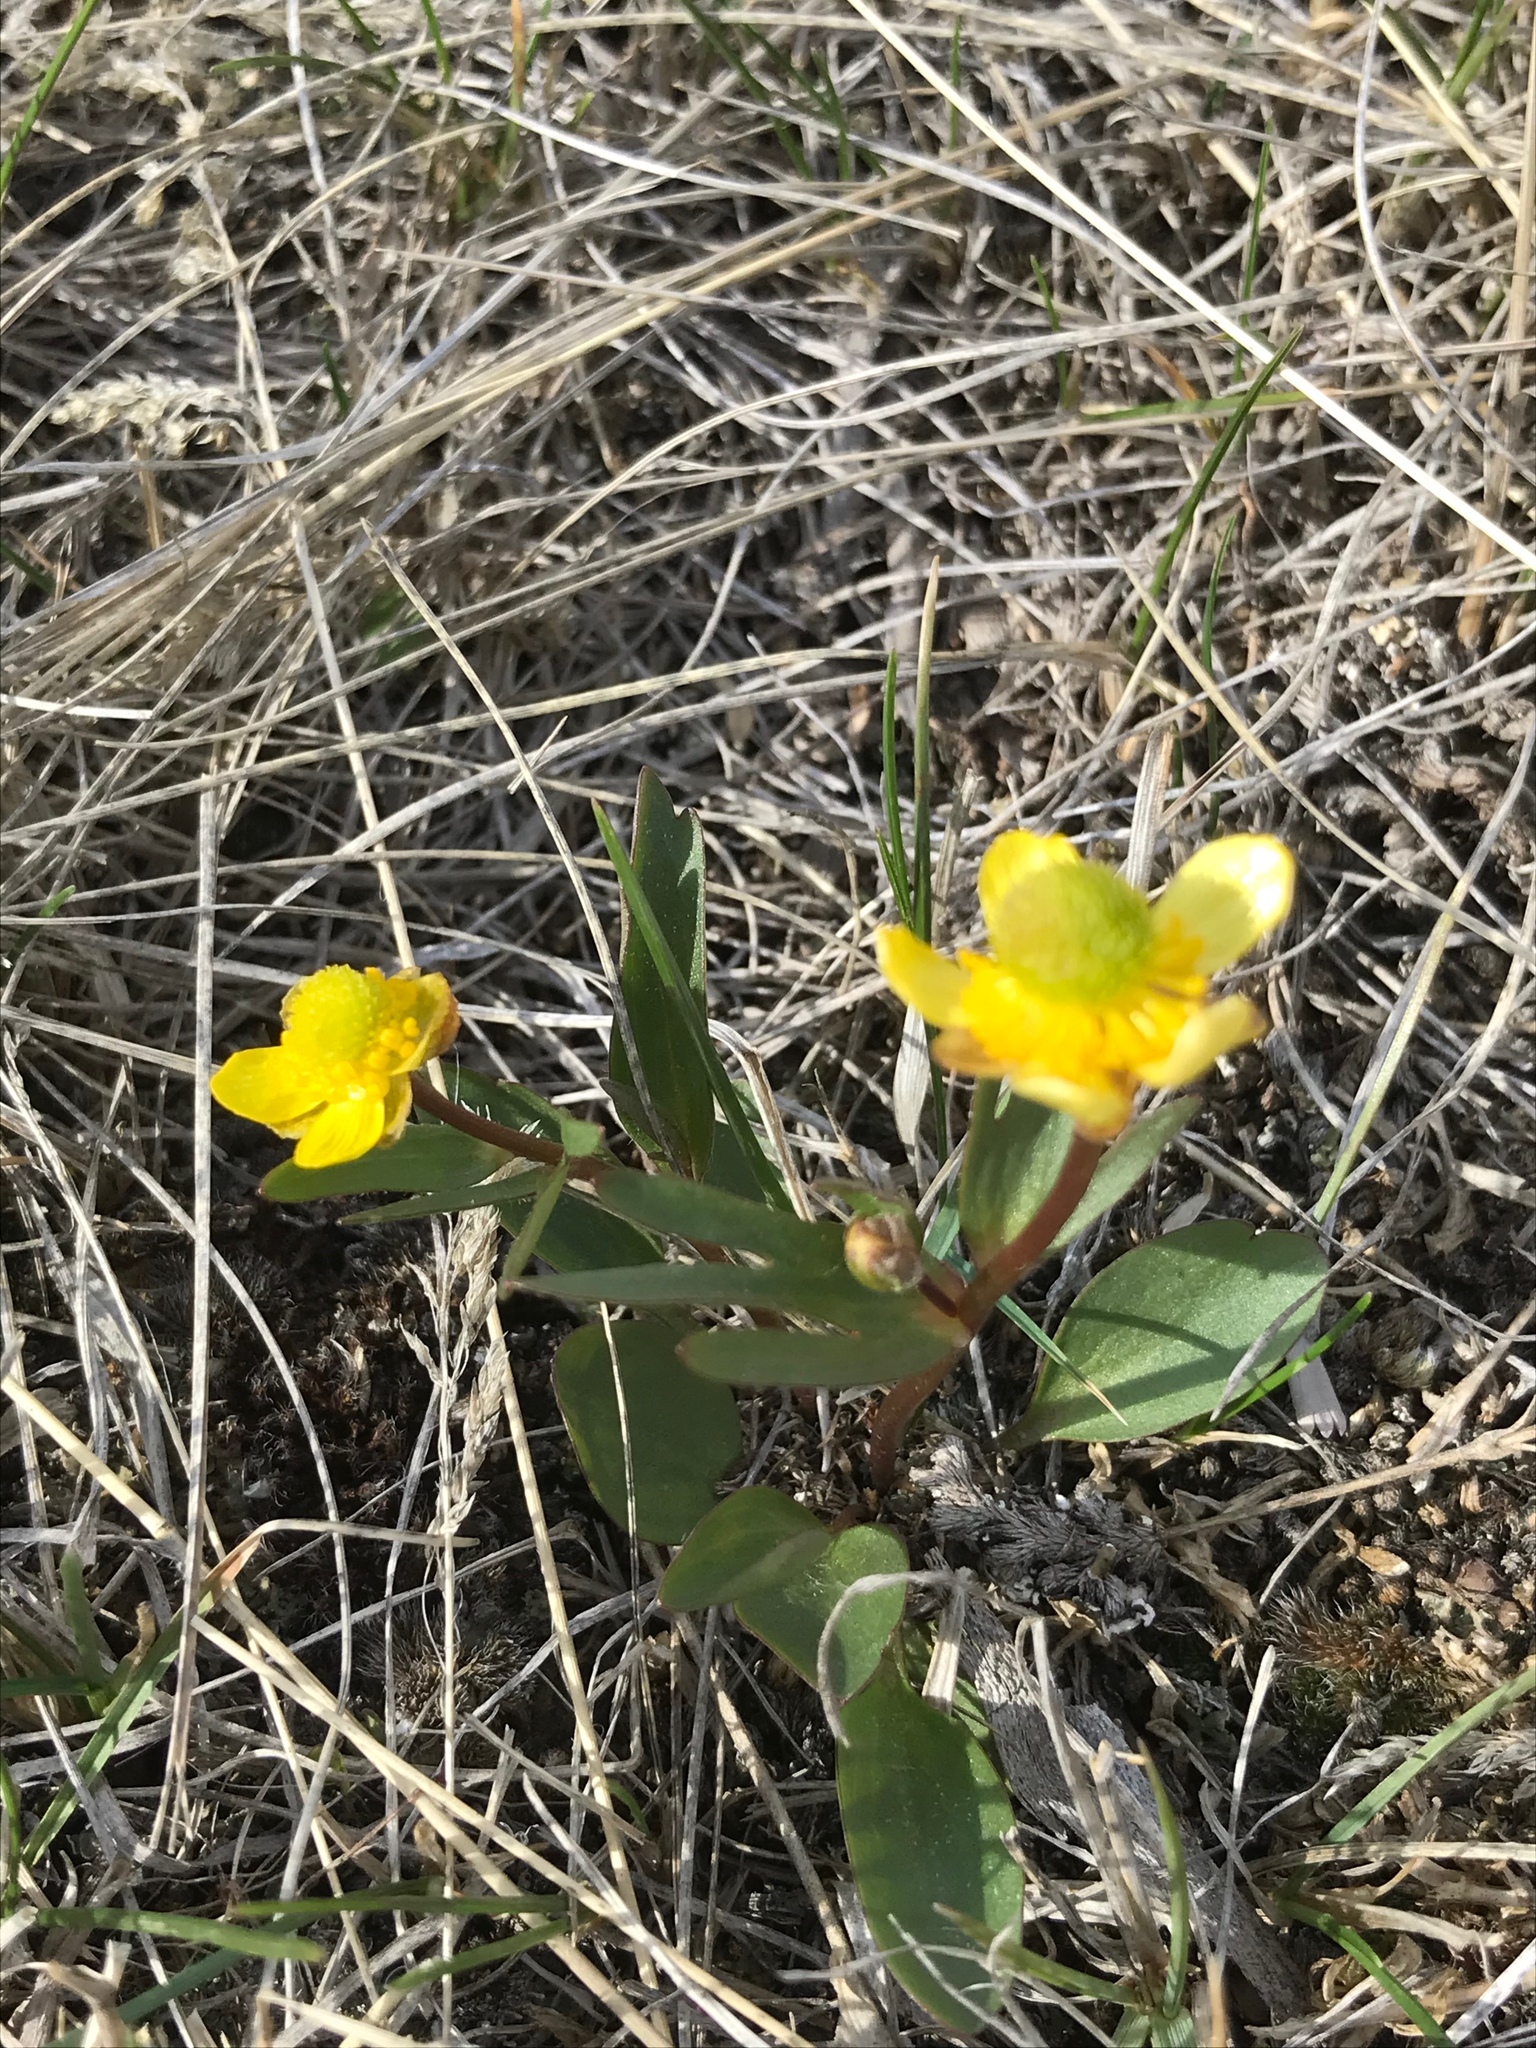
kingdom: Plantae
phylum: Tracheophyta
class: Magnoliopsida
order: Ranunculales
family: Ranunculaceae
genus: Ranunculus
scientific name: Ranunculus glaberrimus
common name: Sagebrush buttercup
